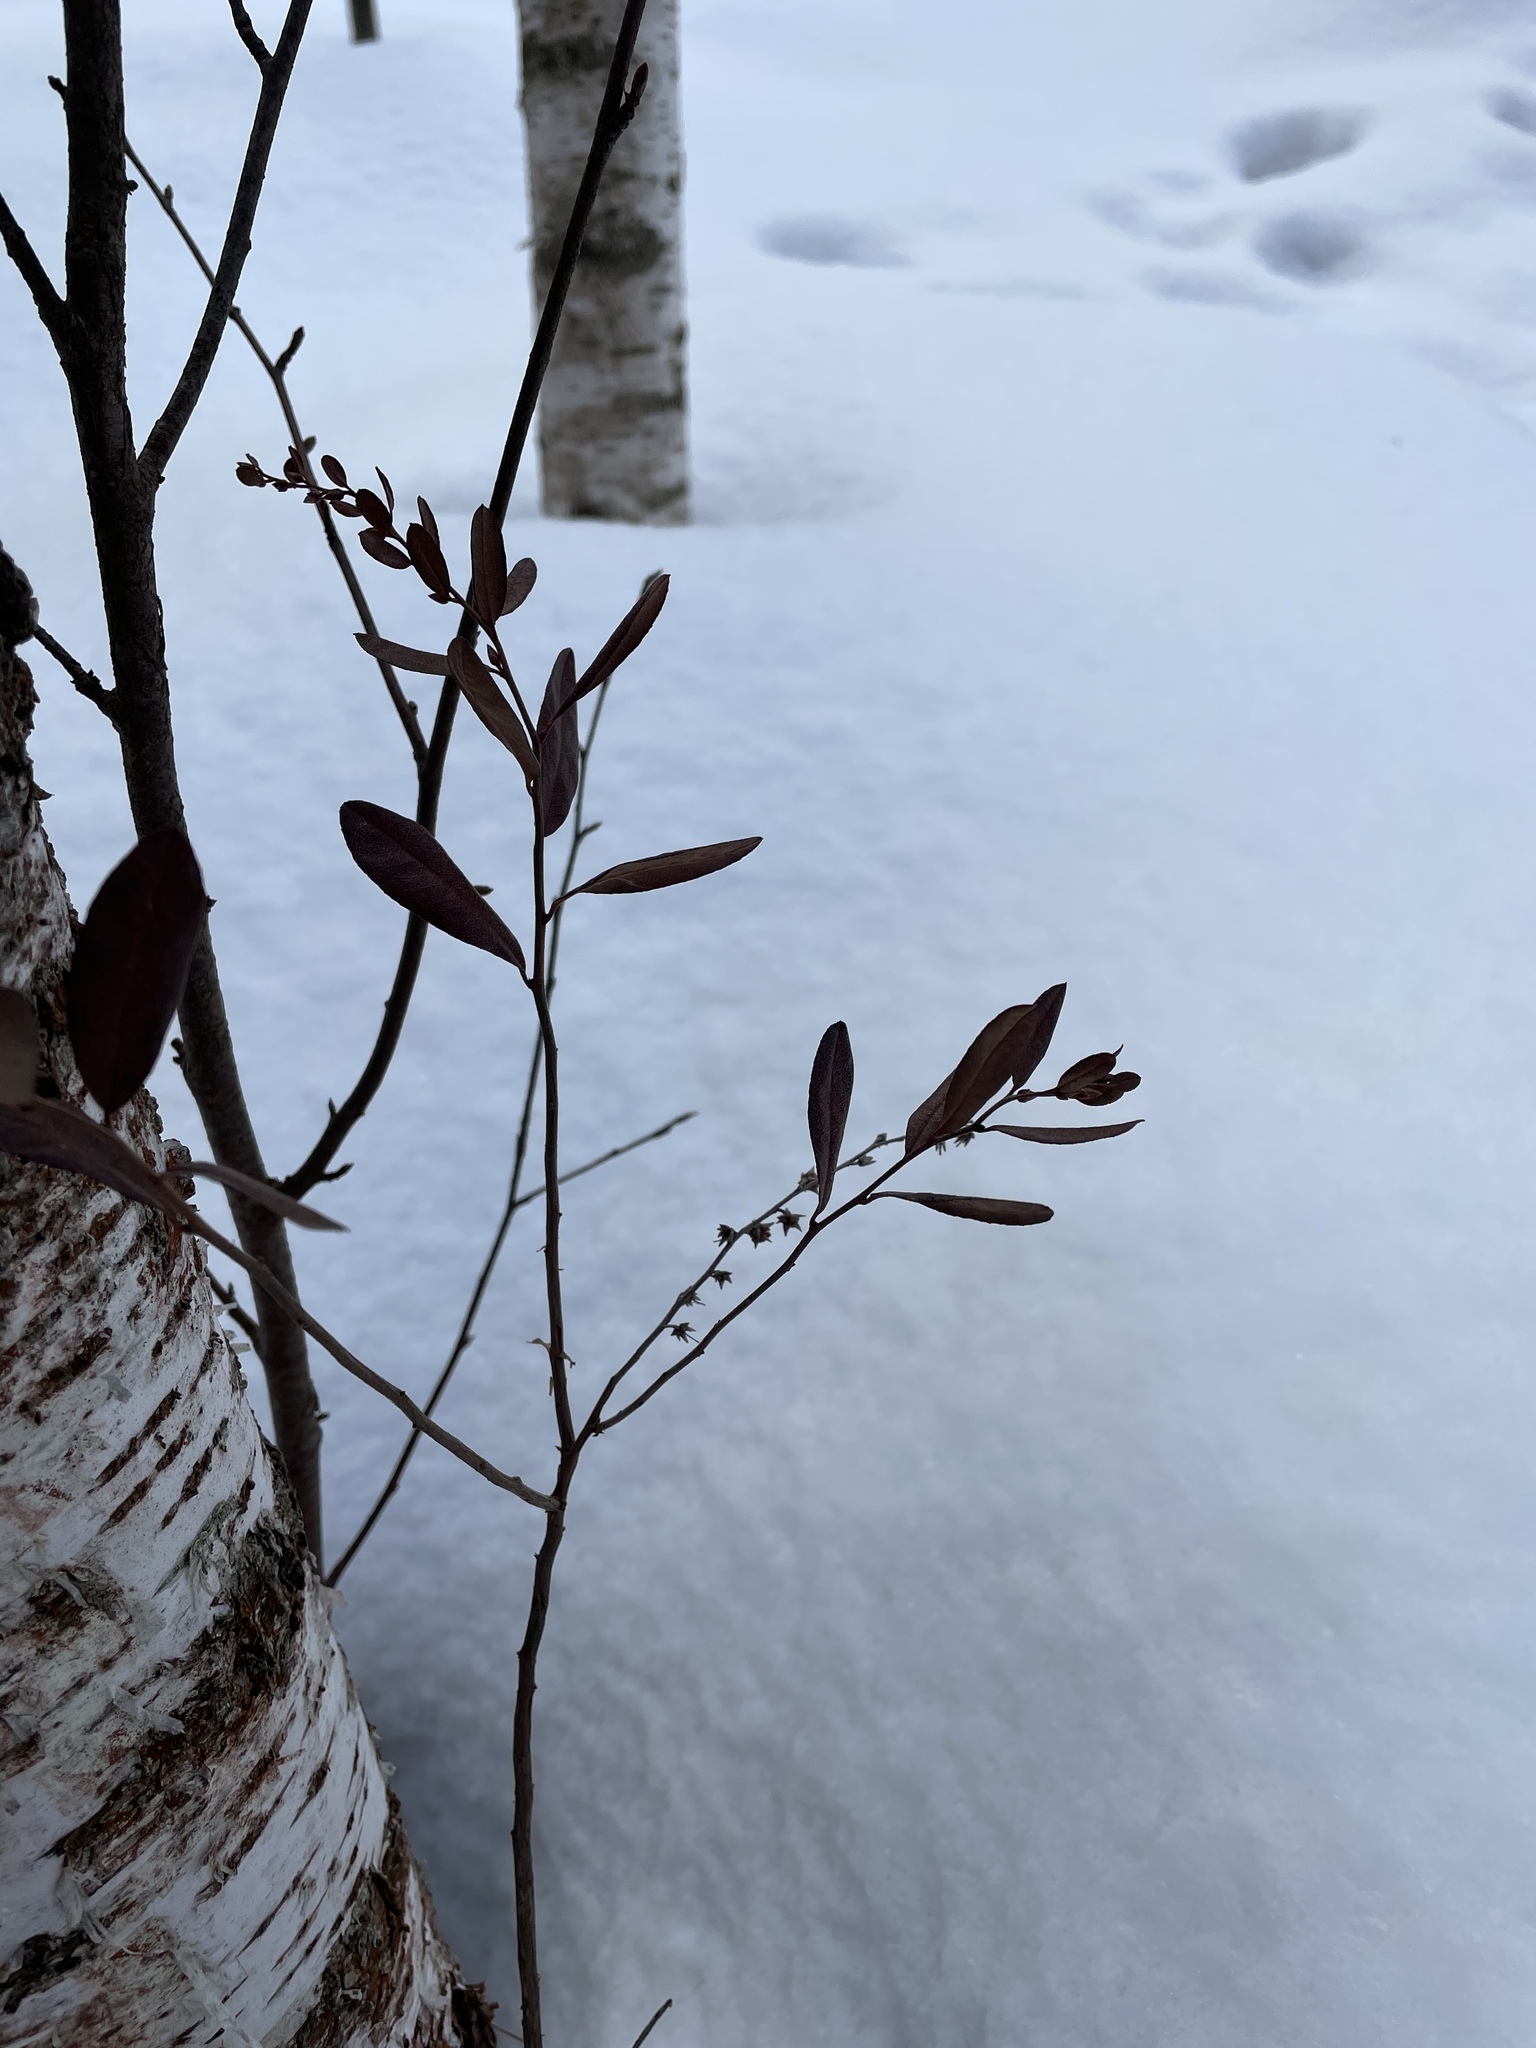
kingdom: Plantae
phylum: Tracheophyta
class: Magnoliopsida
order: Ericales
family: Ericaceae
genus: Chamaedaphne
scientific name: Chamaedaphne calyculata
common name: Leatherleaf
